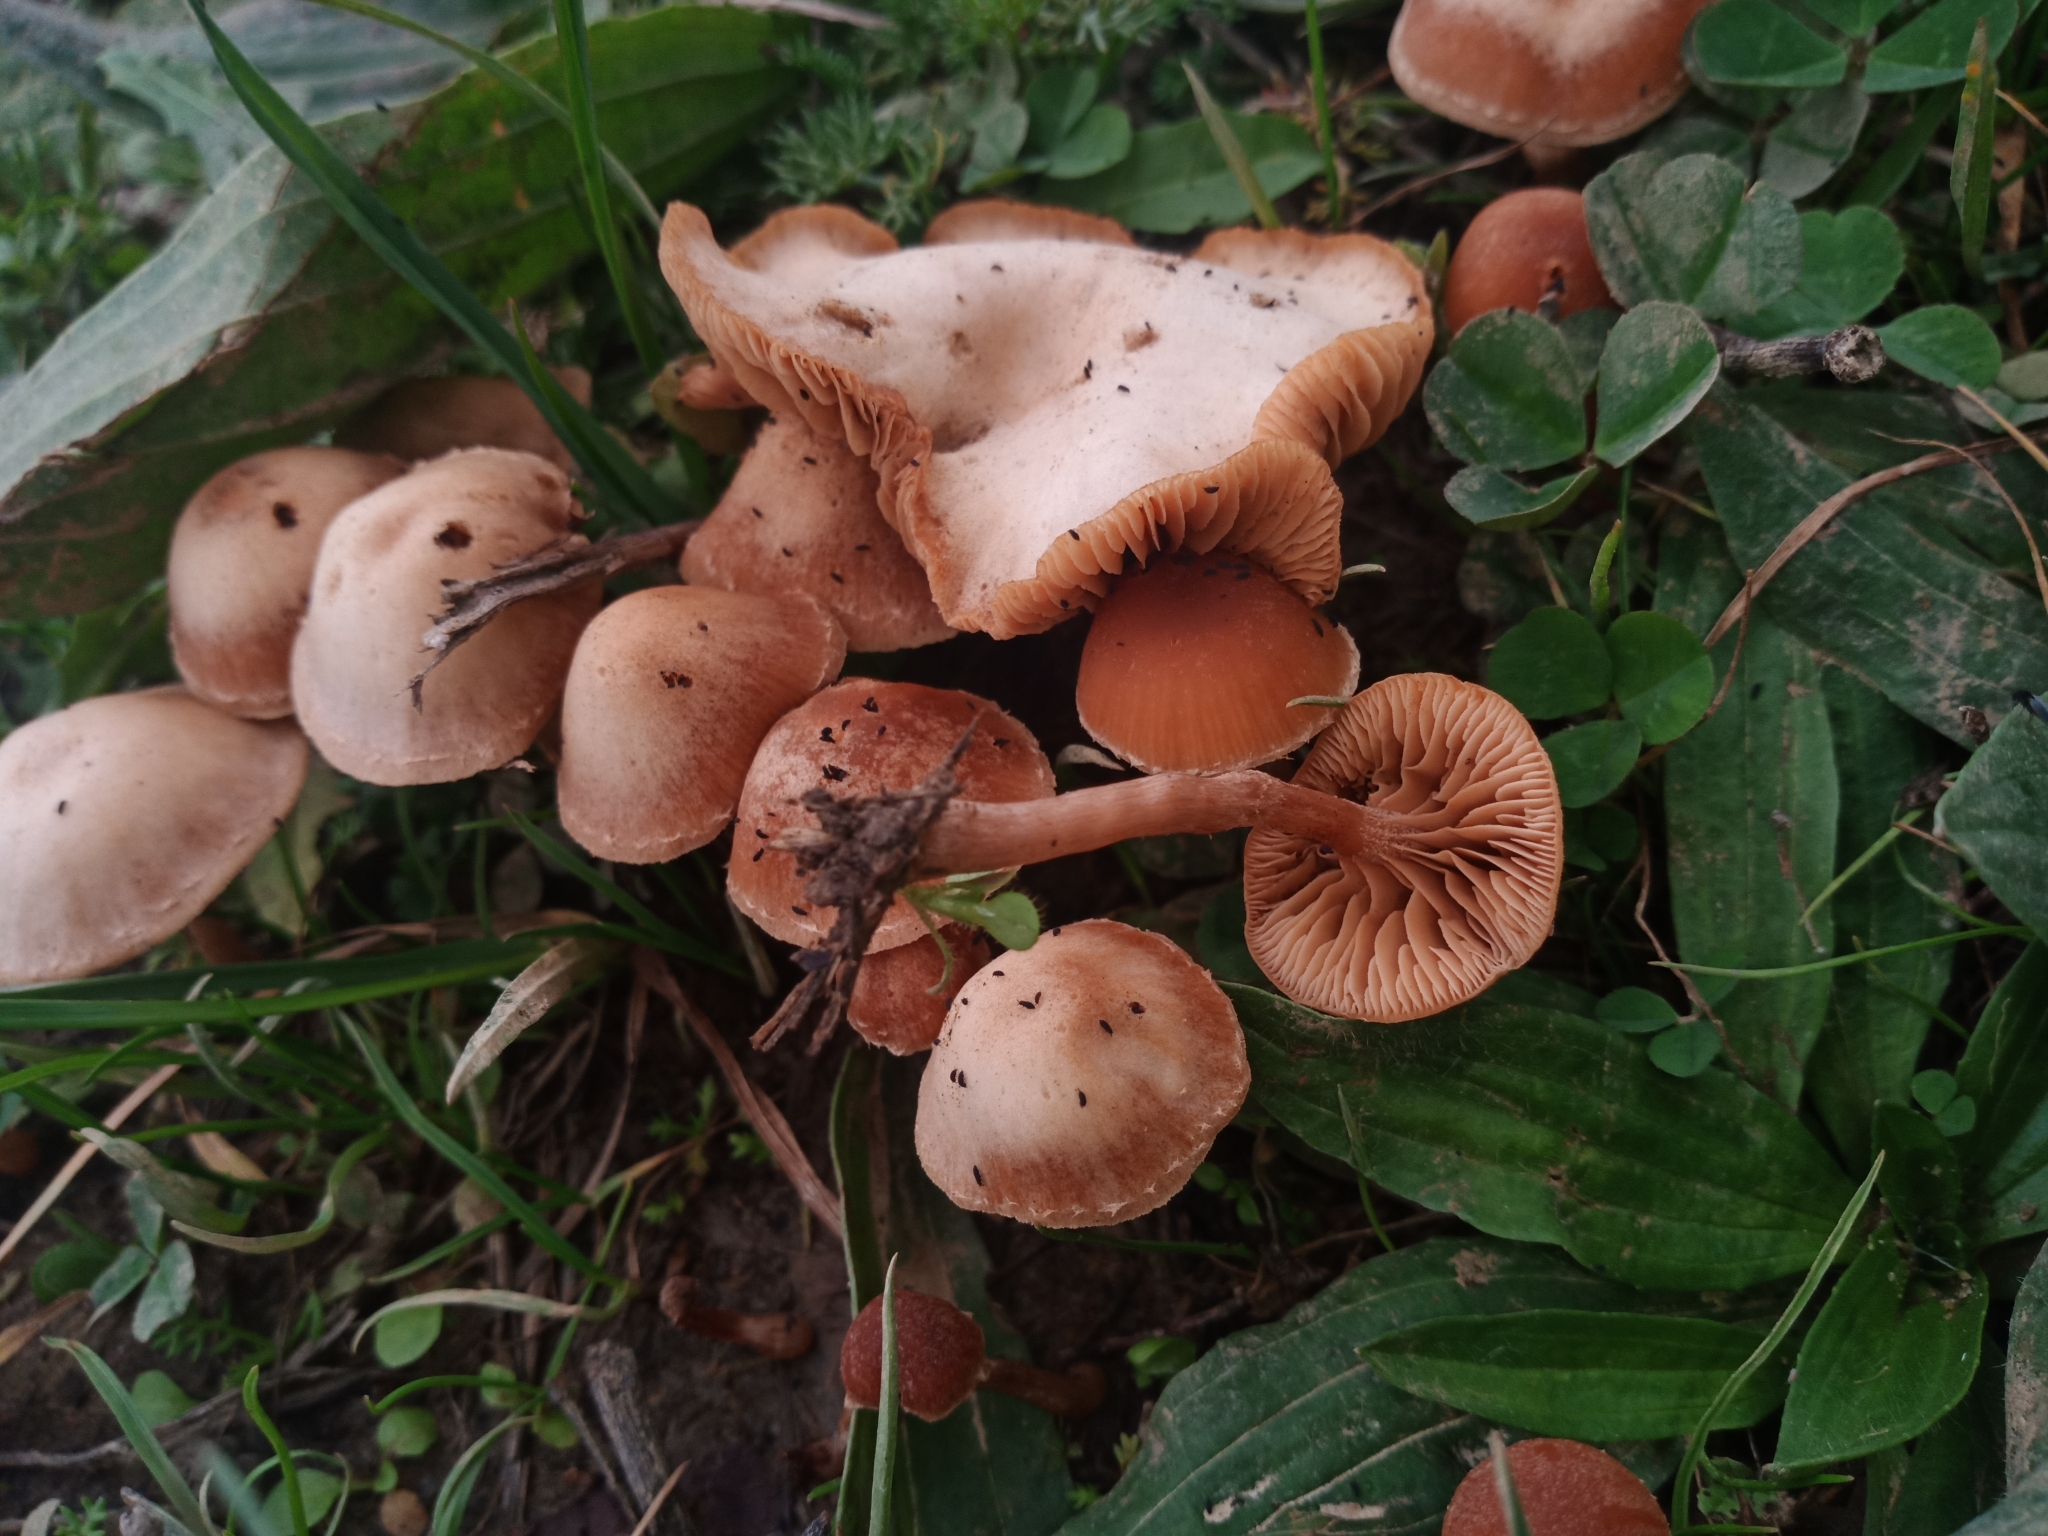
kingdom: Fungi
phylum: Basidiomycota
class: Agaricomycetes
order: Agaricales
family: Tubariaceae
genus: Tubaria
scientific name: Tubaria furfuracea
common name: Scurfy twiglet
